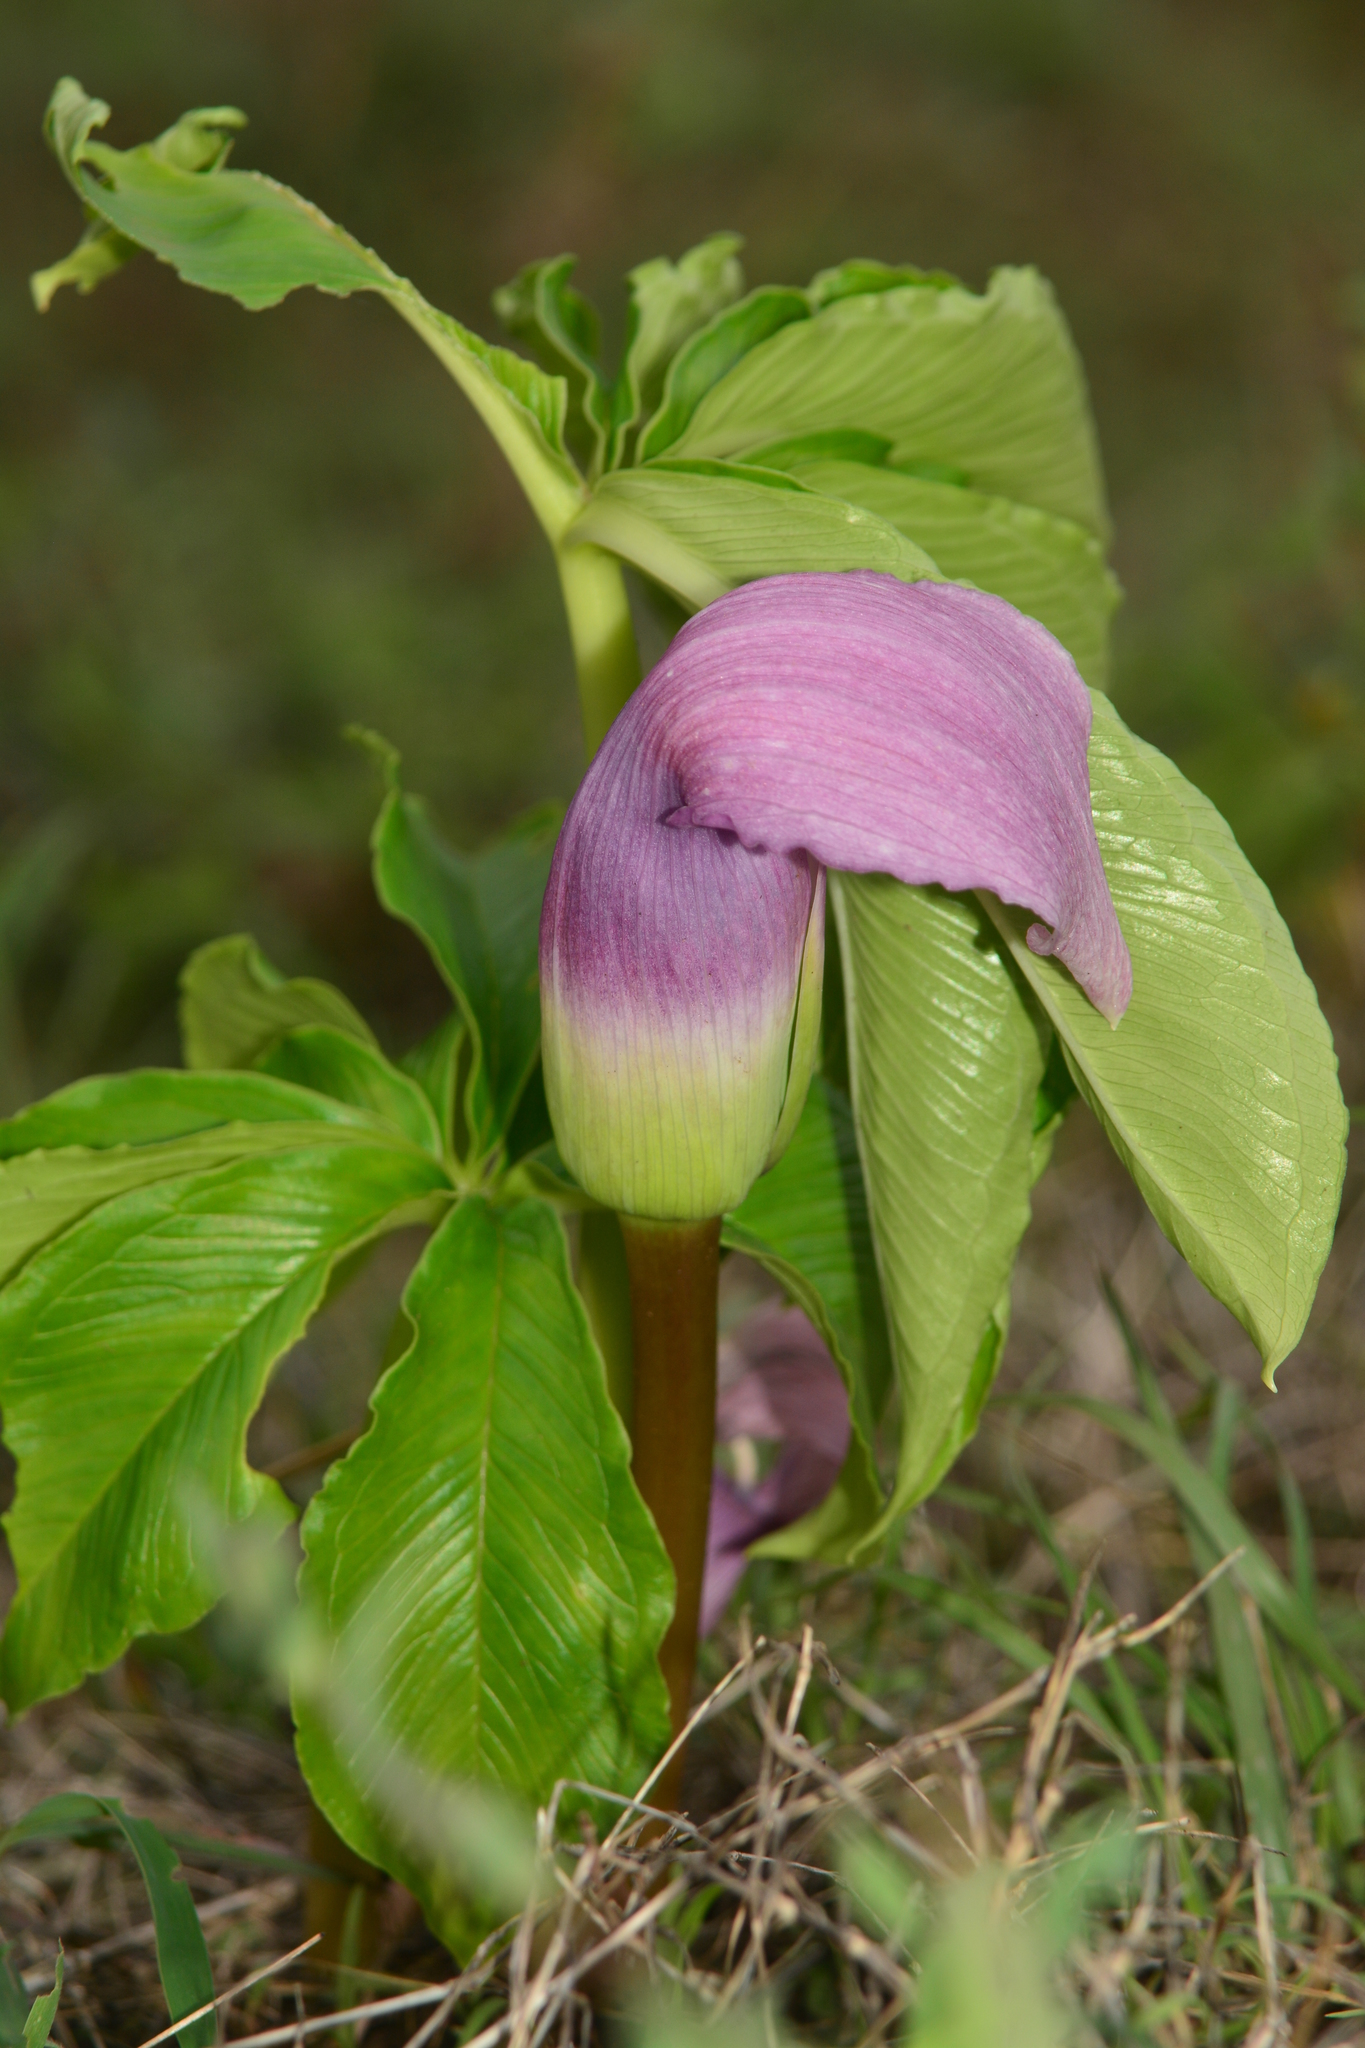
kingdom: Plantae
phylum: Tracheophyta
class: Liliopsida
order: Alismatales
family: Araceae
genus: Arisaema
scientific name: Arisaema murrayi
